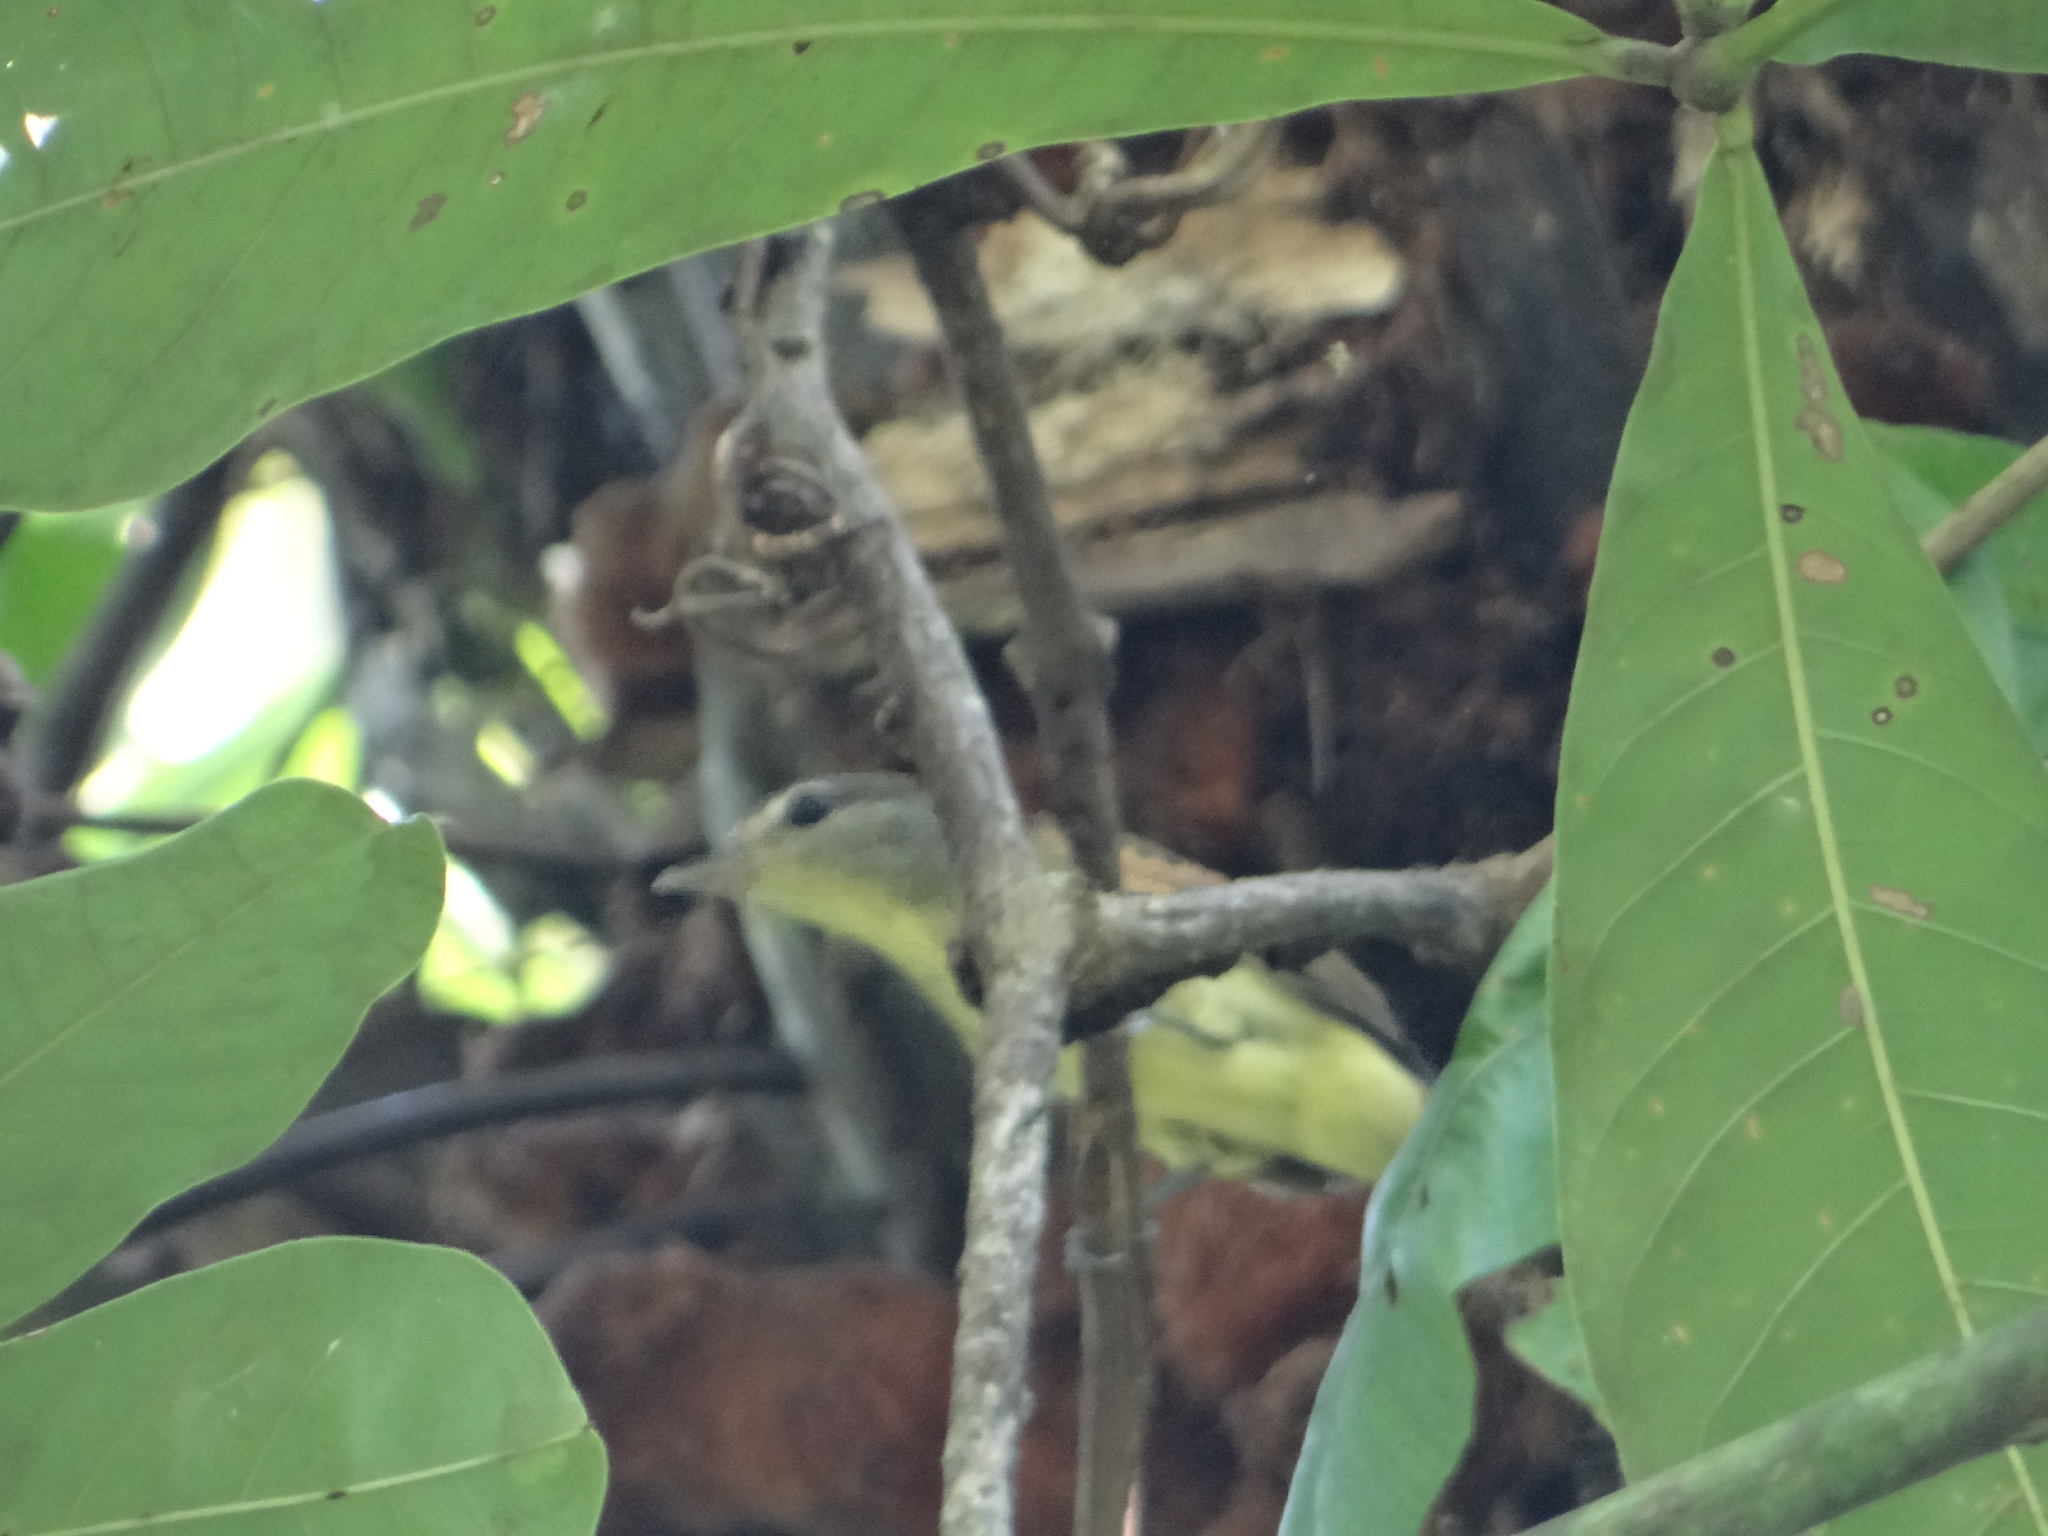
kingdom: Animalia
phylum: Chordata
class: Aves
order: Passeriformes
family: Cotingidae
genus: Pachyramphus
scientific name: Pachyramphus polychopterus
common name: White-winged becard
